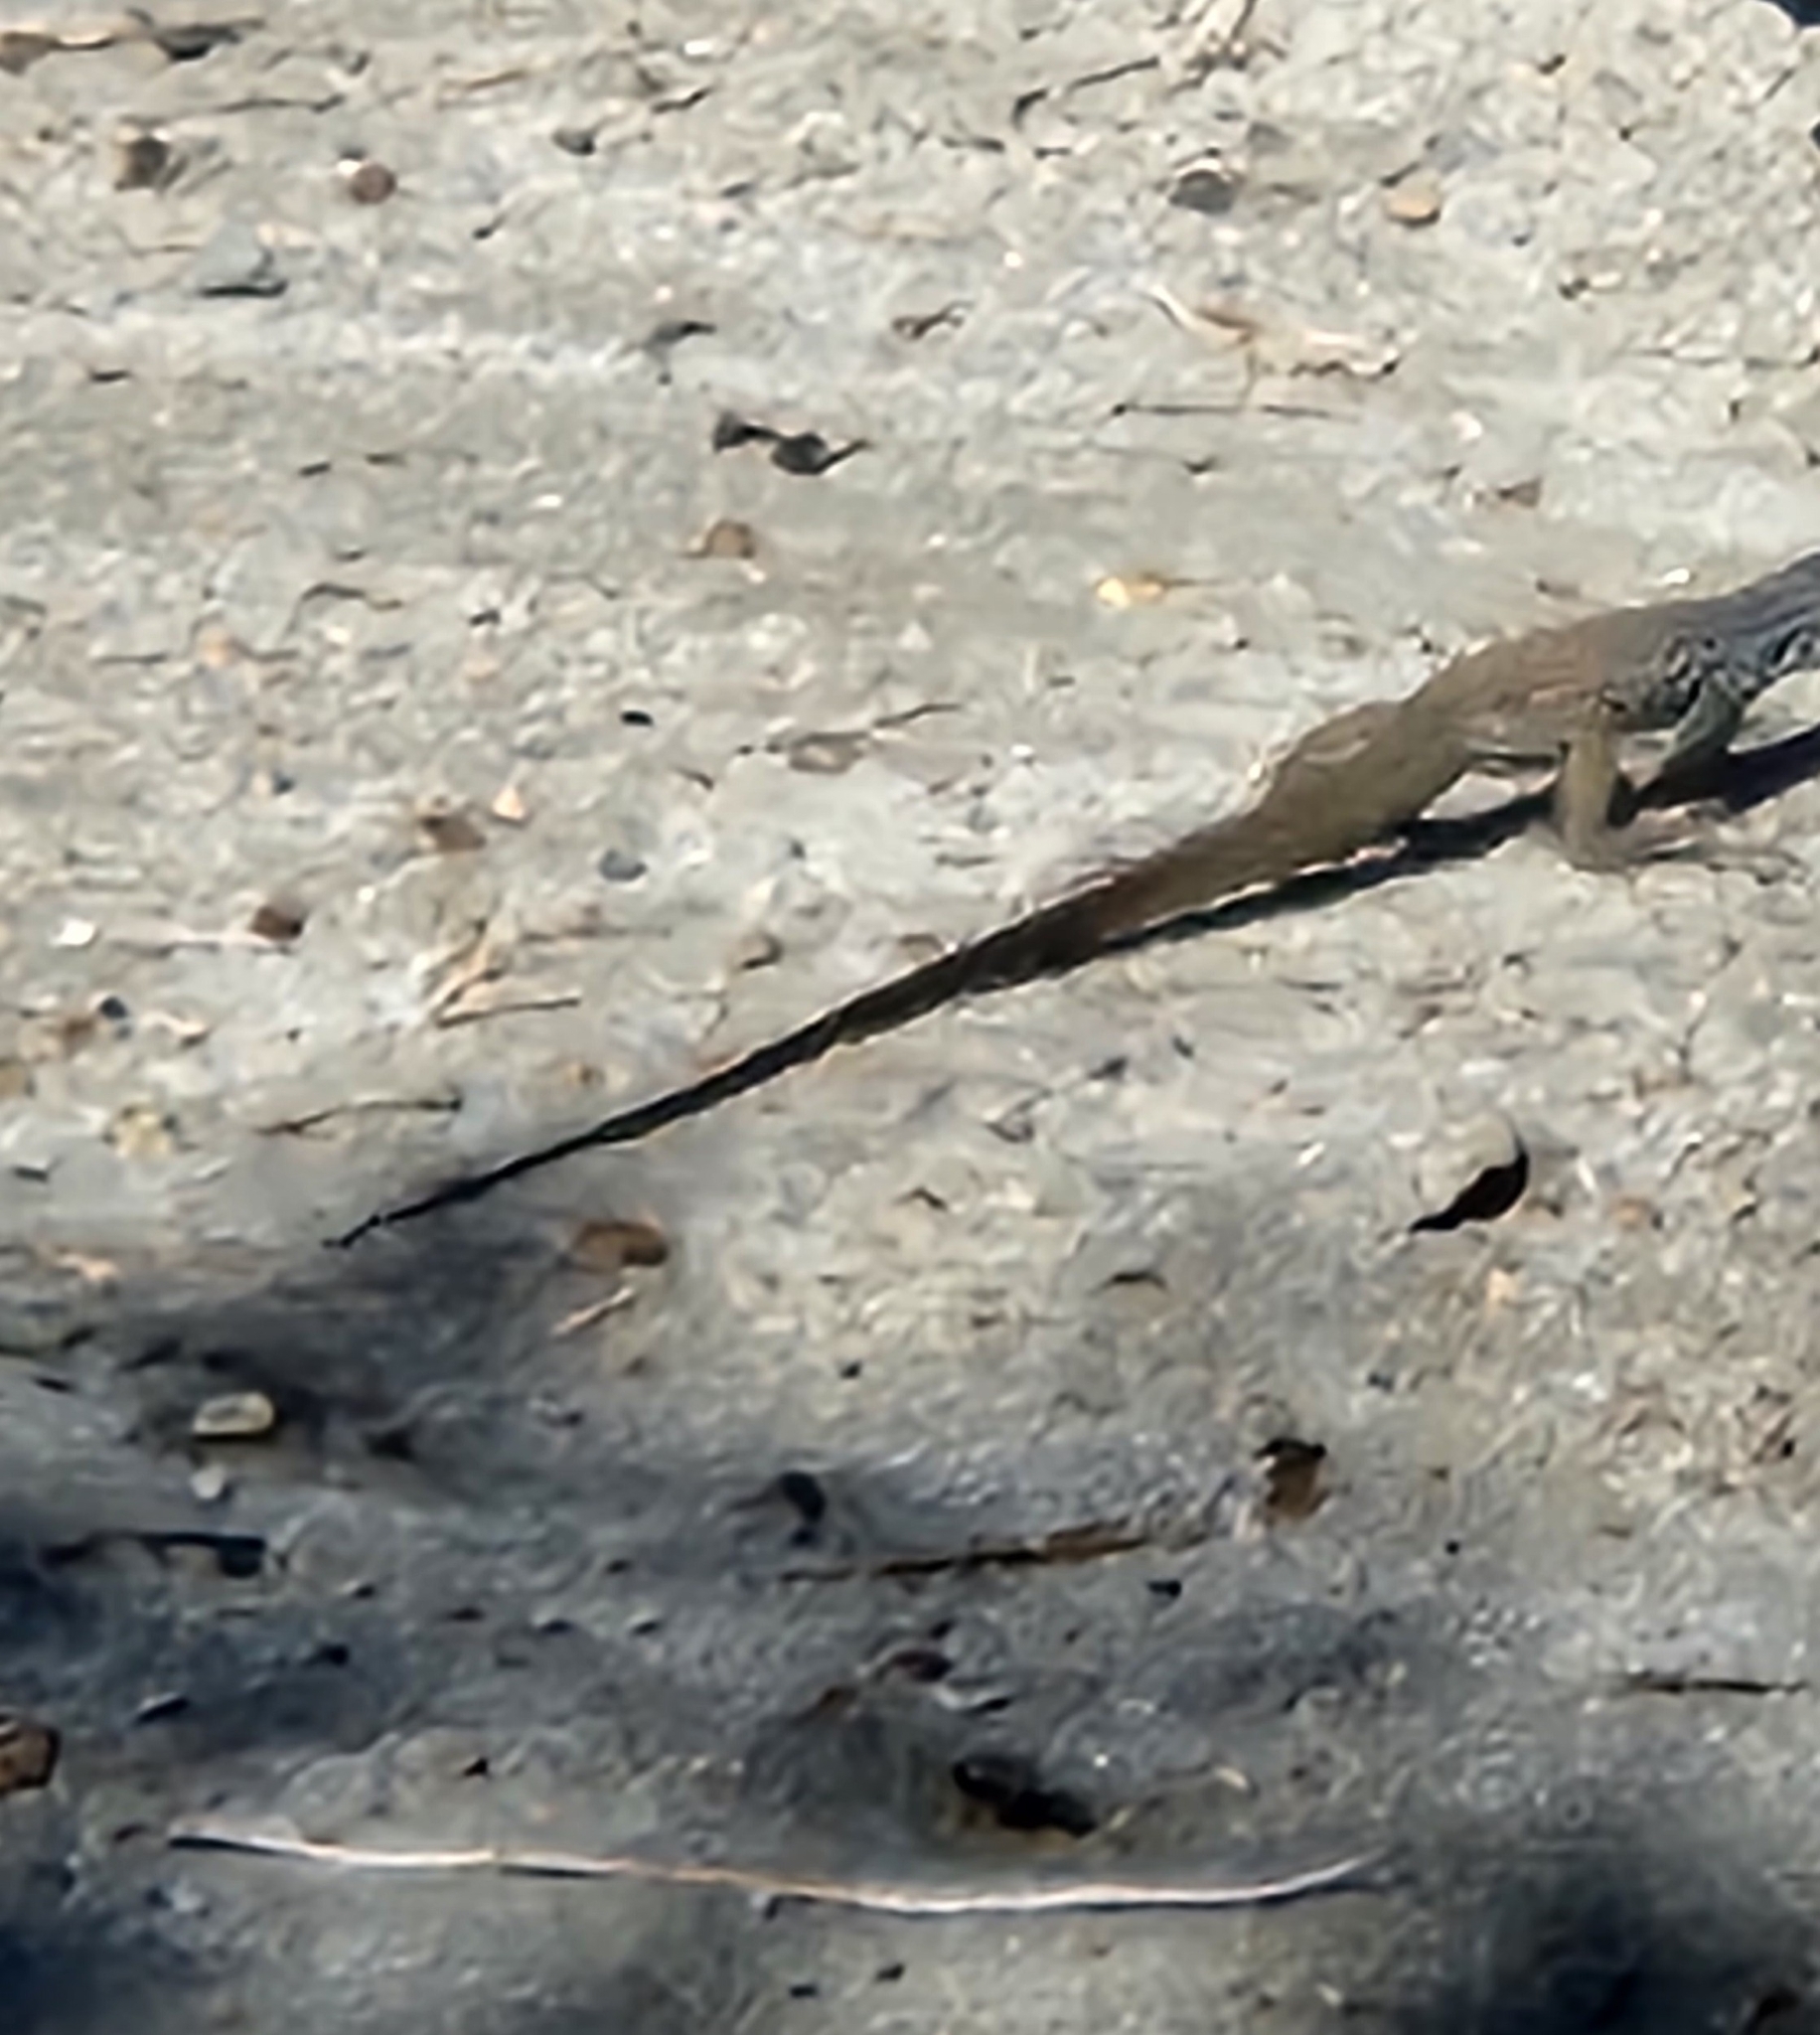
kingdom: Animalia
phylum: Chordata
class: Squamata
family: Teiidae
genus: Aspidoscelis
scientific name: Aspidoscelis tigris
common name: Tiger whiptail
